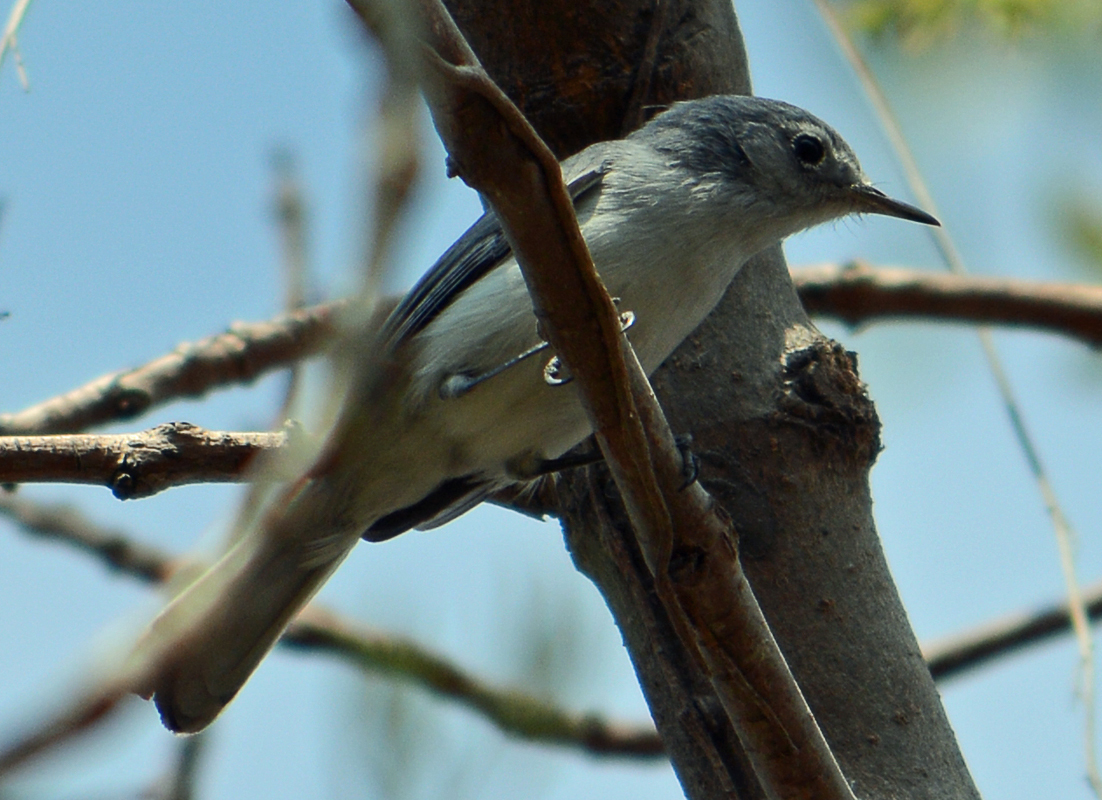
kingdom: Animalia
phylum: Chordata
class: Aves
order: Passeriformes
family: Polioptilidae
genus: Polioptila
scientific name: Polioptila caerulea
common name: Blue-gray gnatcatcher
